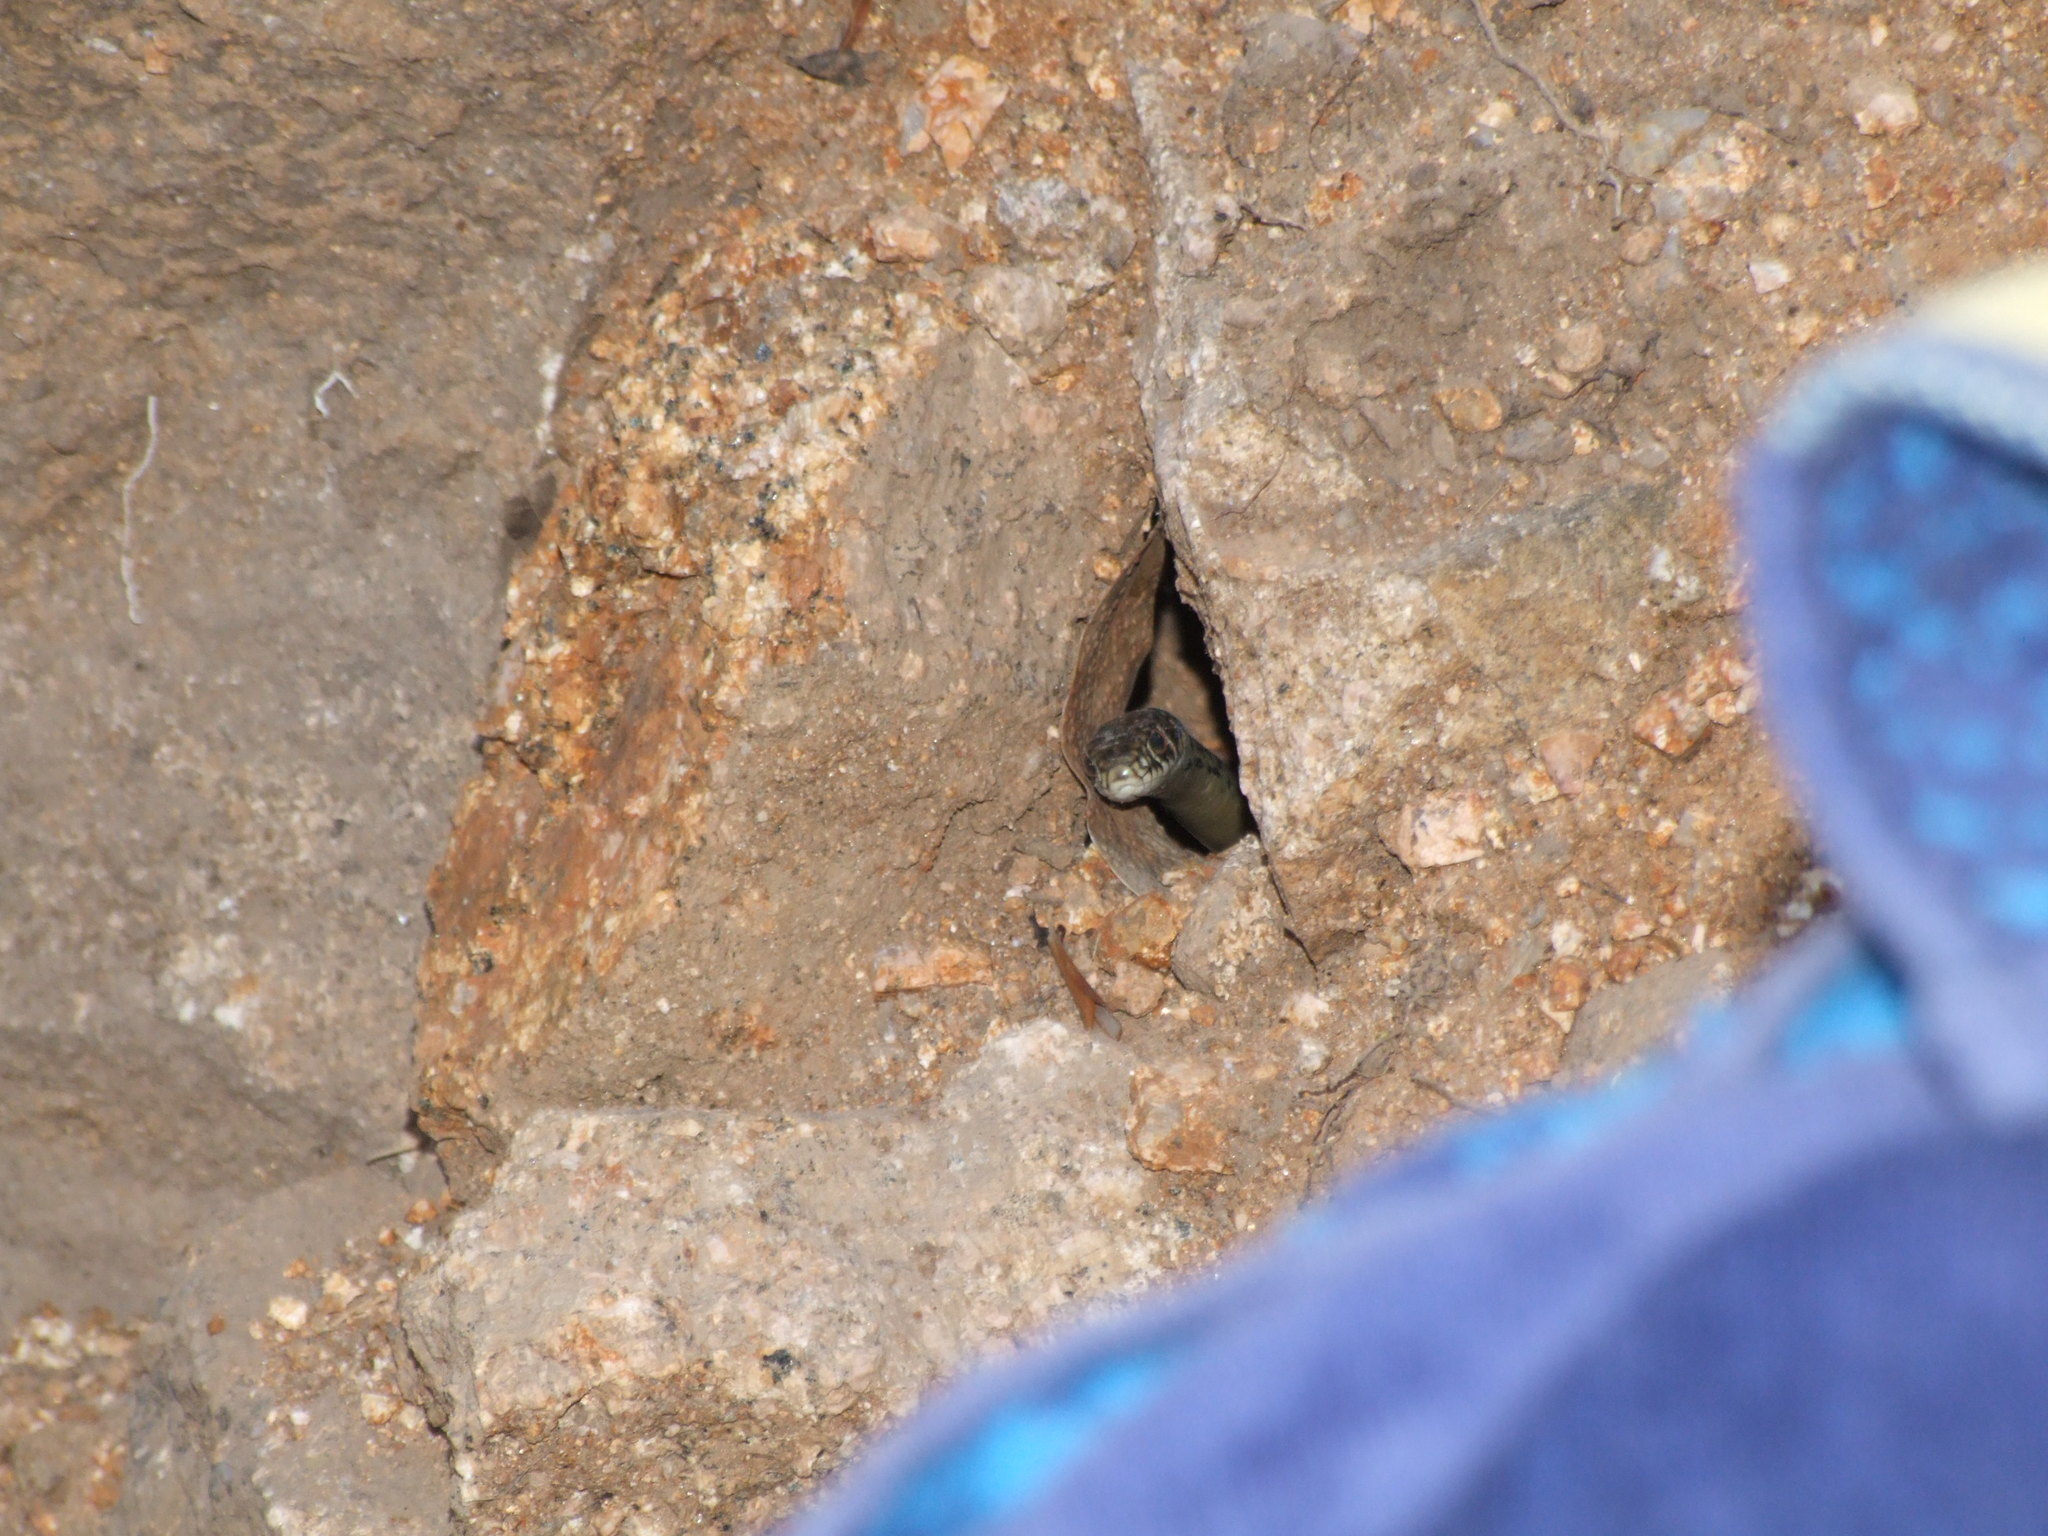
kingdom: Animalia
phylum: Chordata
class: Squamata
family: Colubridae
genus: Hierophis
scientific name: Hierophis viridiflavus
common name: Green whip snake
